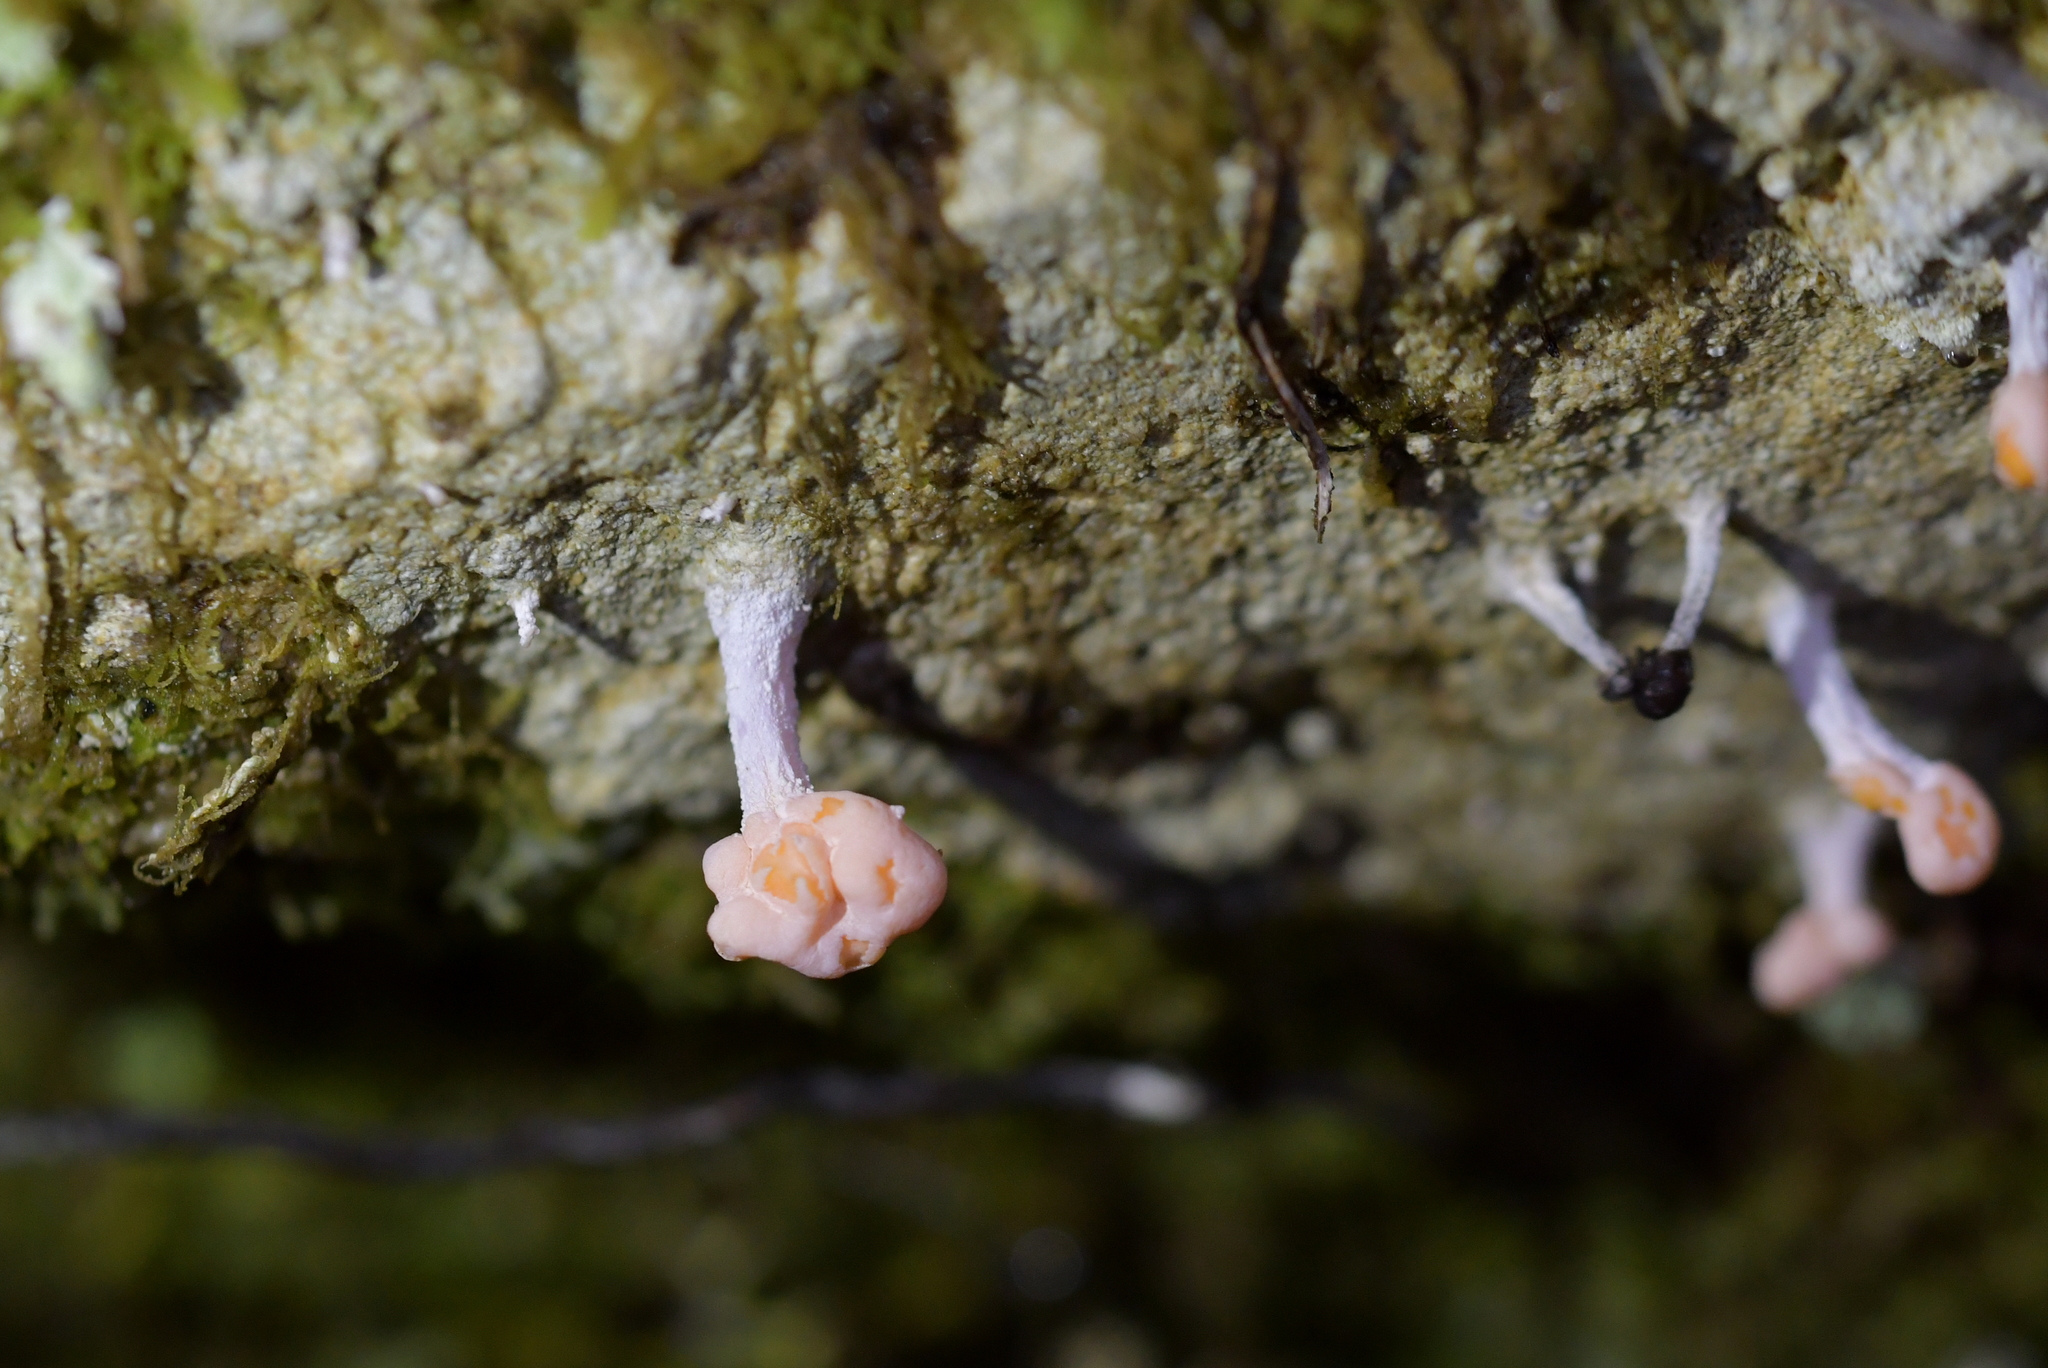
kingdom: Fungi
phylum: Ascomycota
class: Lecanoromycetes
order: Pertusariales
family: Icmadophilaceae
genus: Dibaeis
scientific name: Dibaeis arcuata
